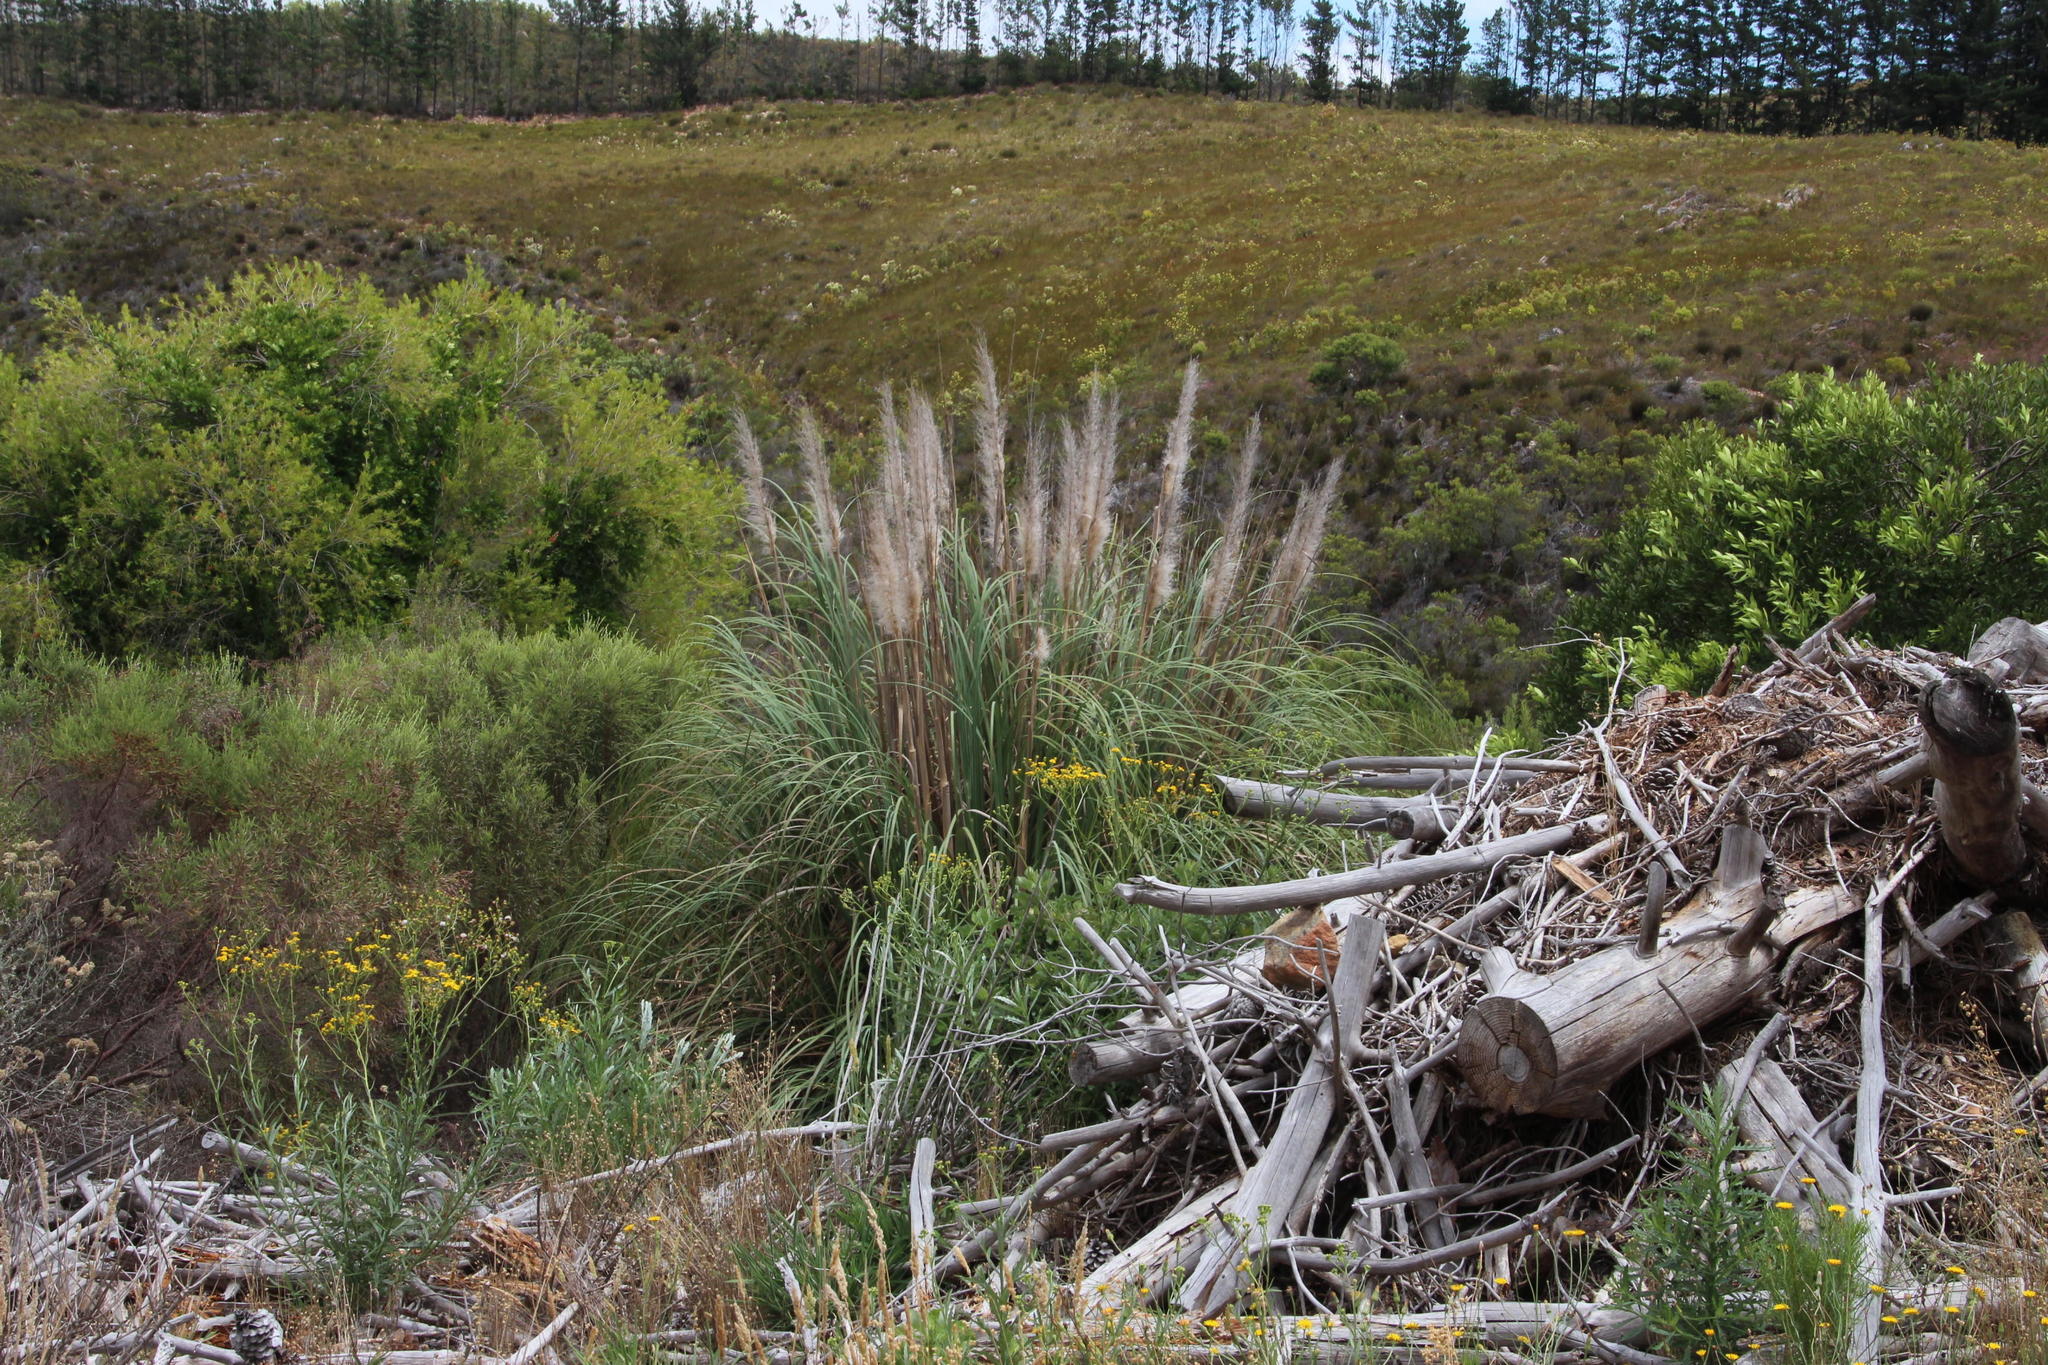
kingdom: Plantae
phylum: Tracheophyta
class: Liliopsida
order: Poales
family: Poaceae
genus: Cortaderia
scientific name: Cortaderia selloana
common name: Uruguayan pampas grass
